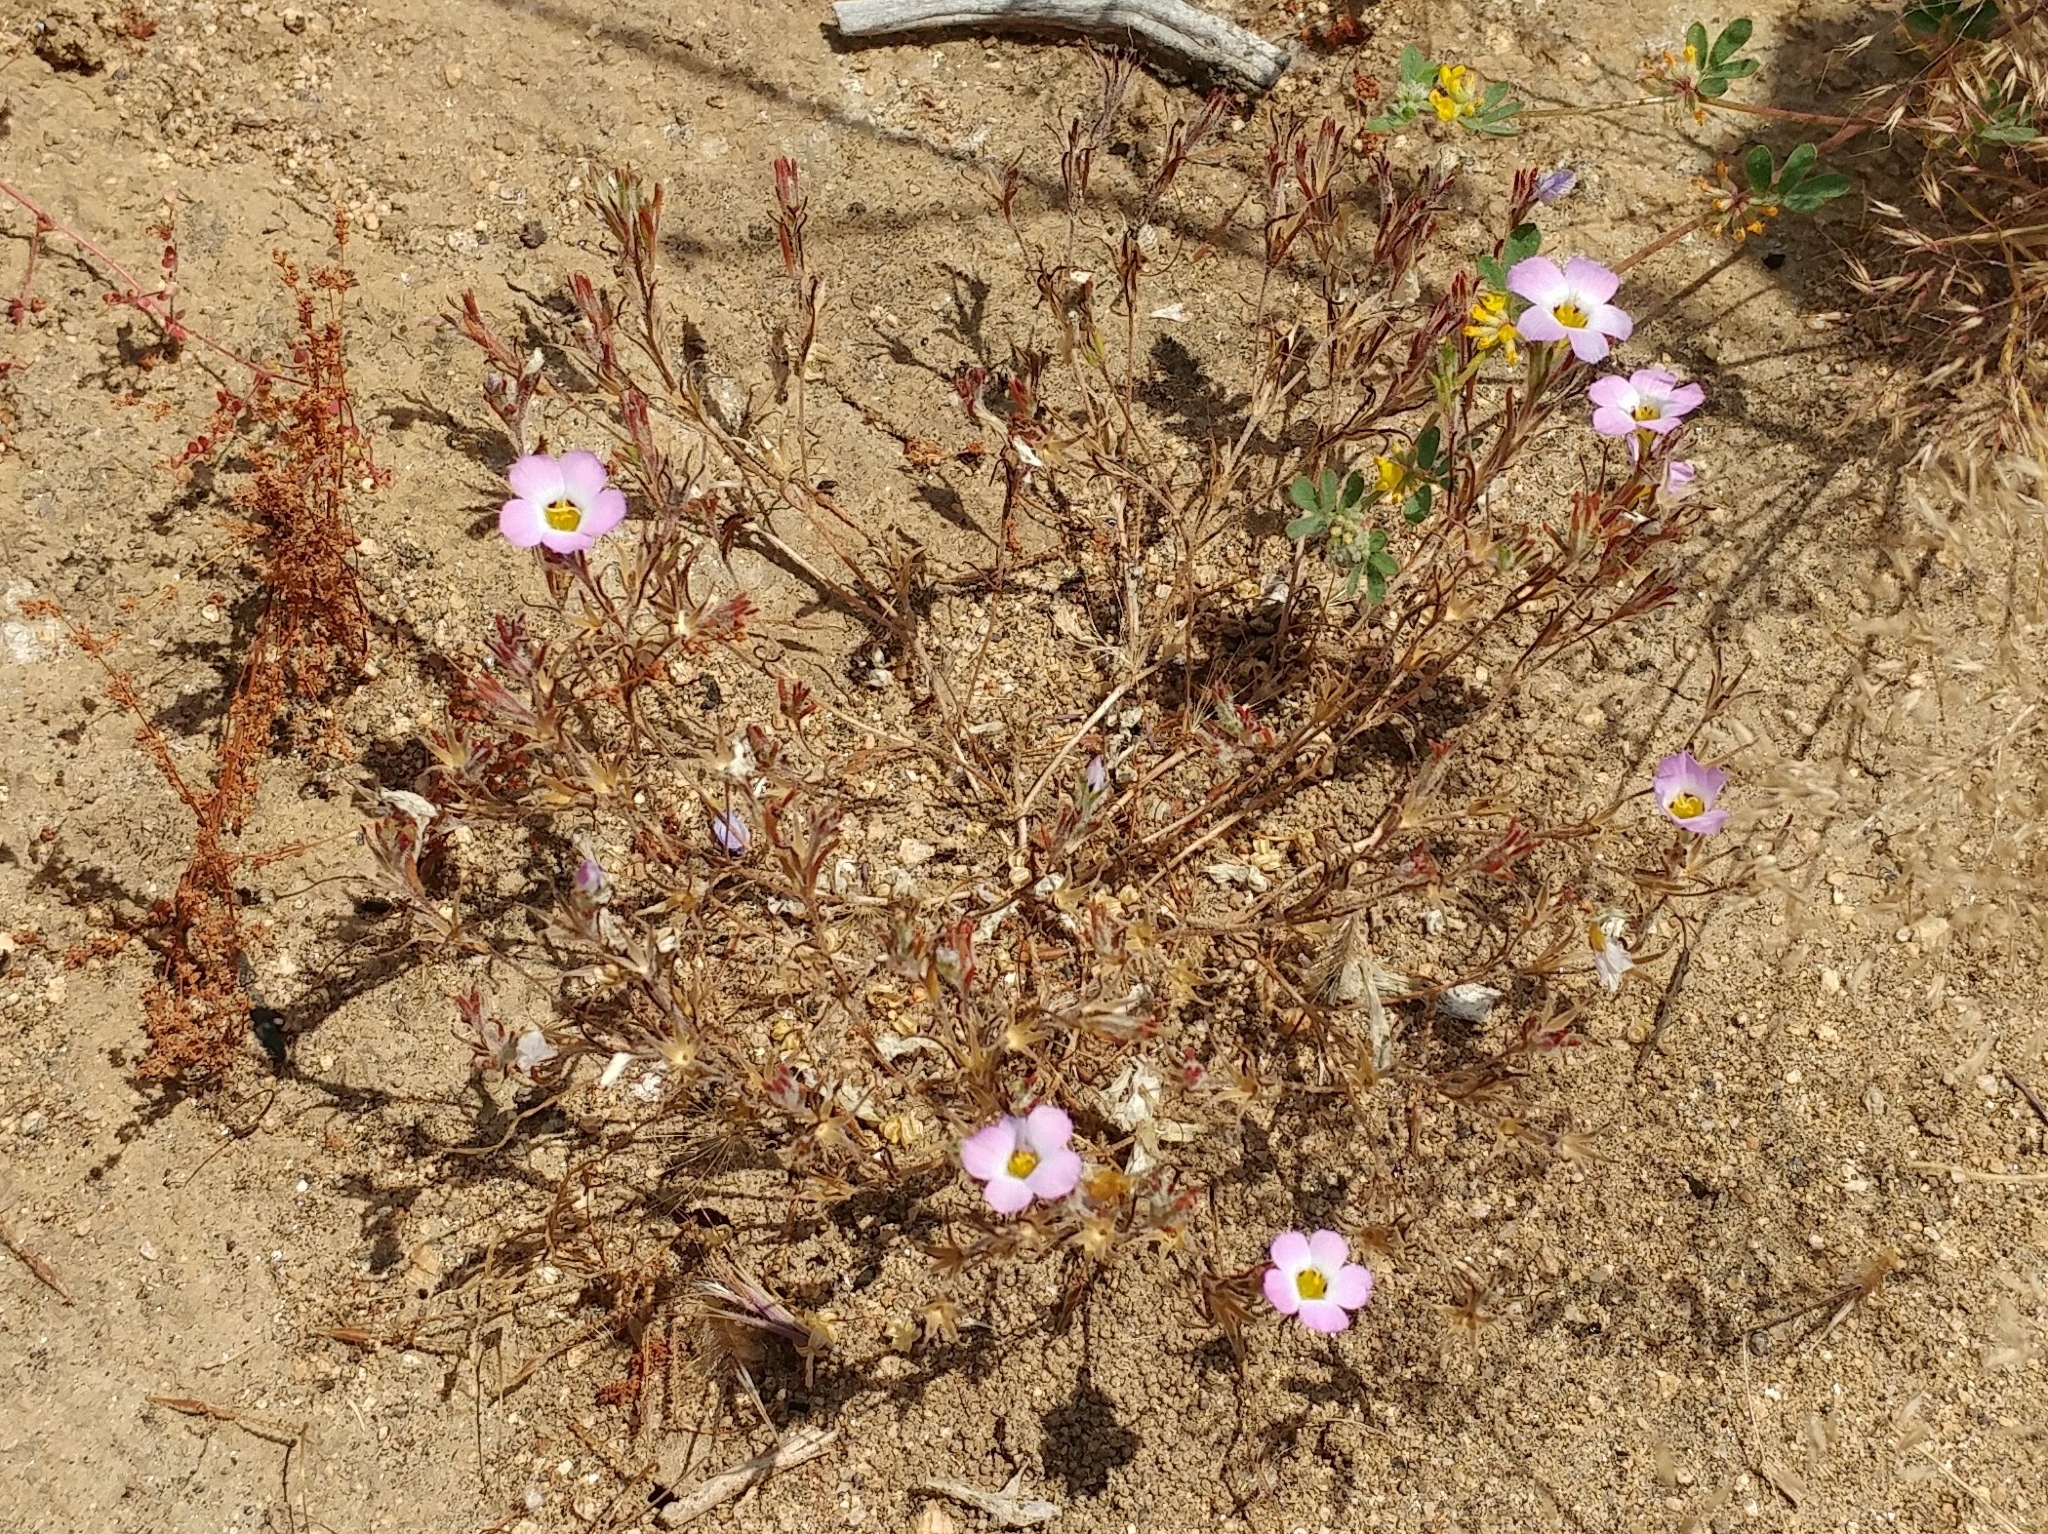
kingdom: Plantae
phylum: Tracheophyta
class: Magnoliopsida
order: Ericales
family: Polemoniaceae
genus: Linanthus
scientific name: Linanthus dianthiflorus
